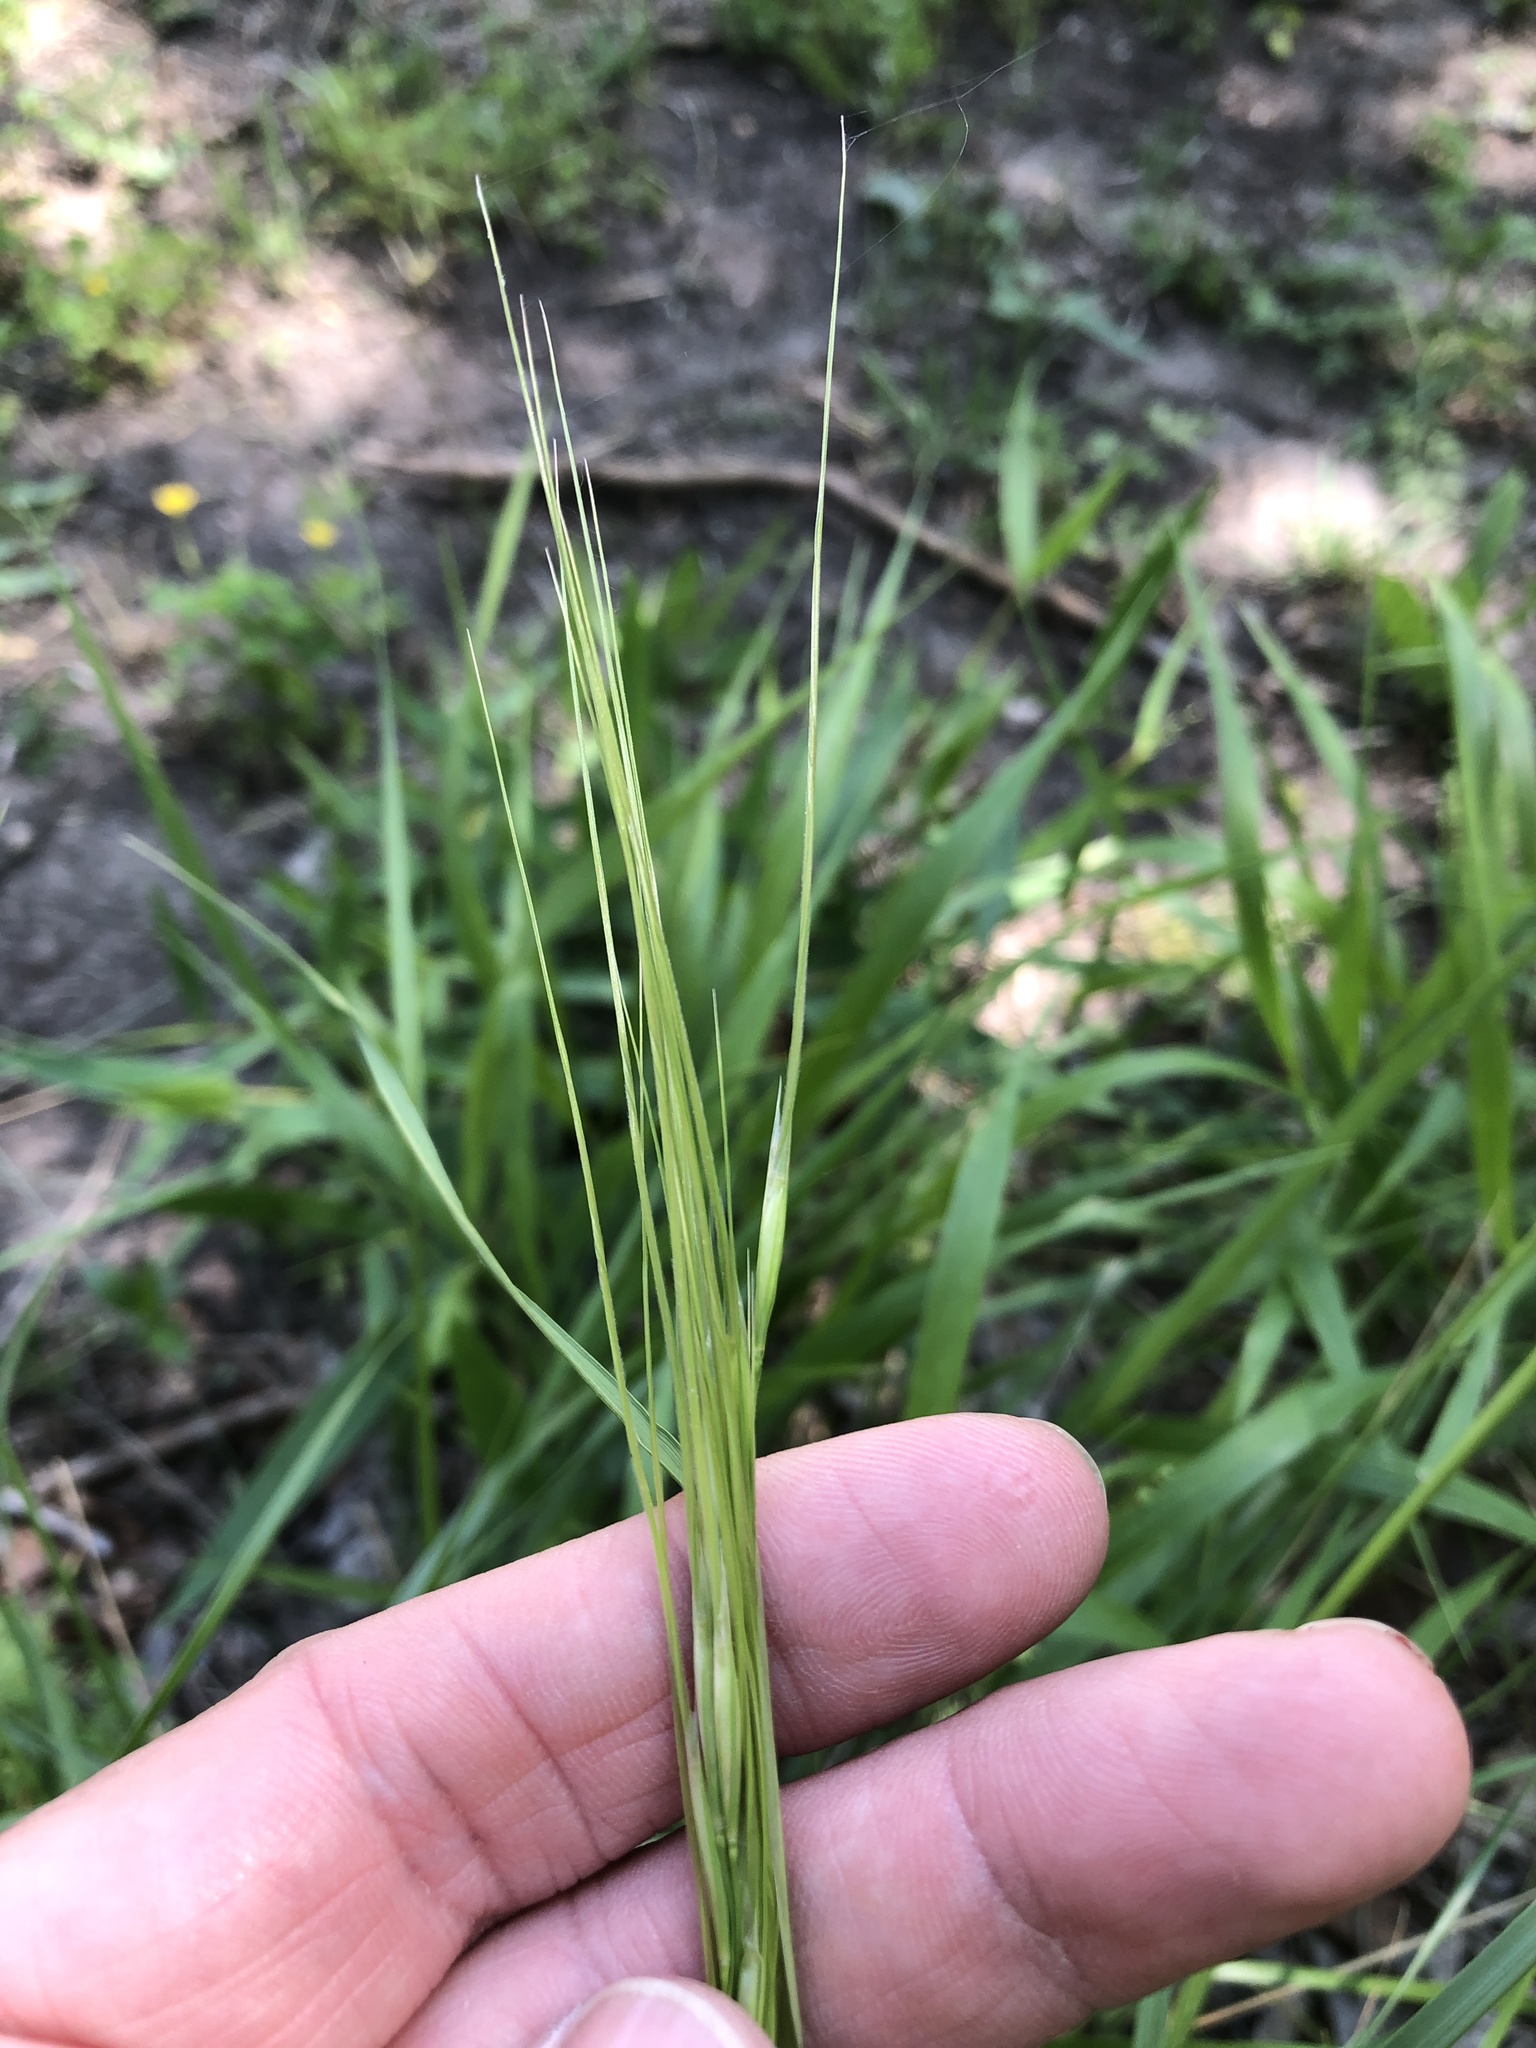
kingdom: Plantae
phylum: Tracheophyta
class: Liliopsida
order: Poales
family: Poaceae
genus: Nassella
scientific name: Nassella leucotricha
